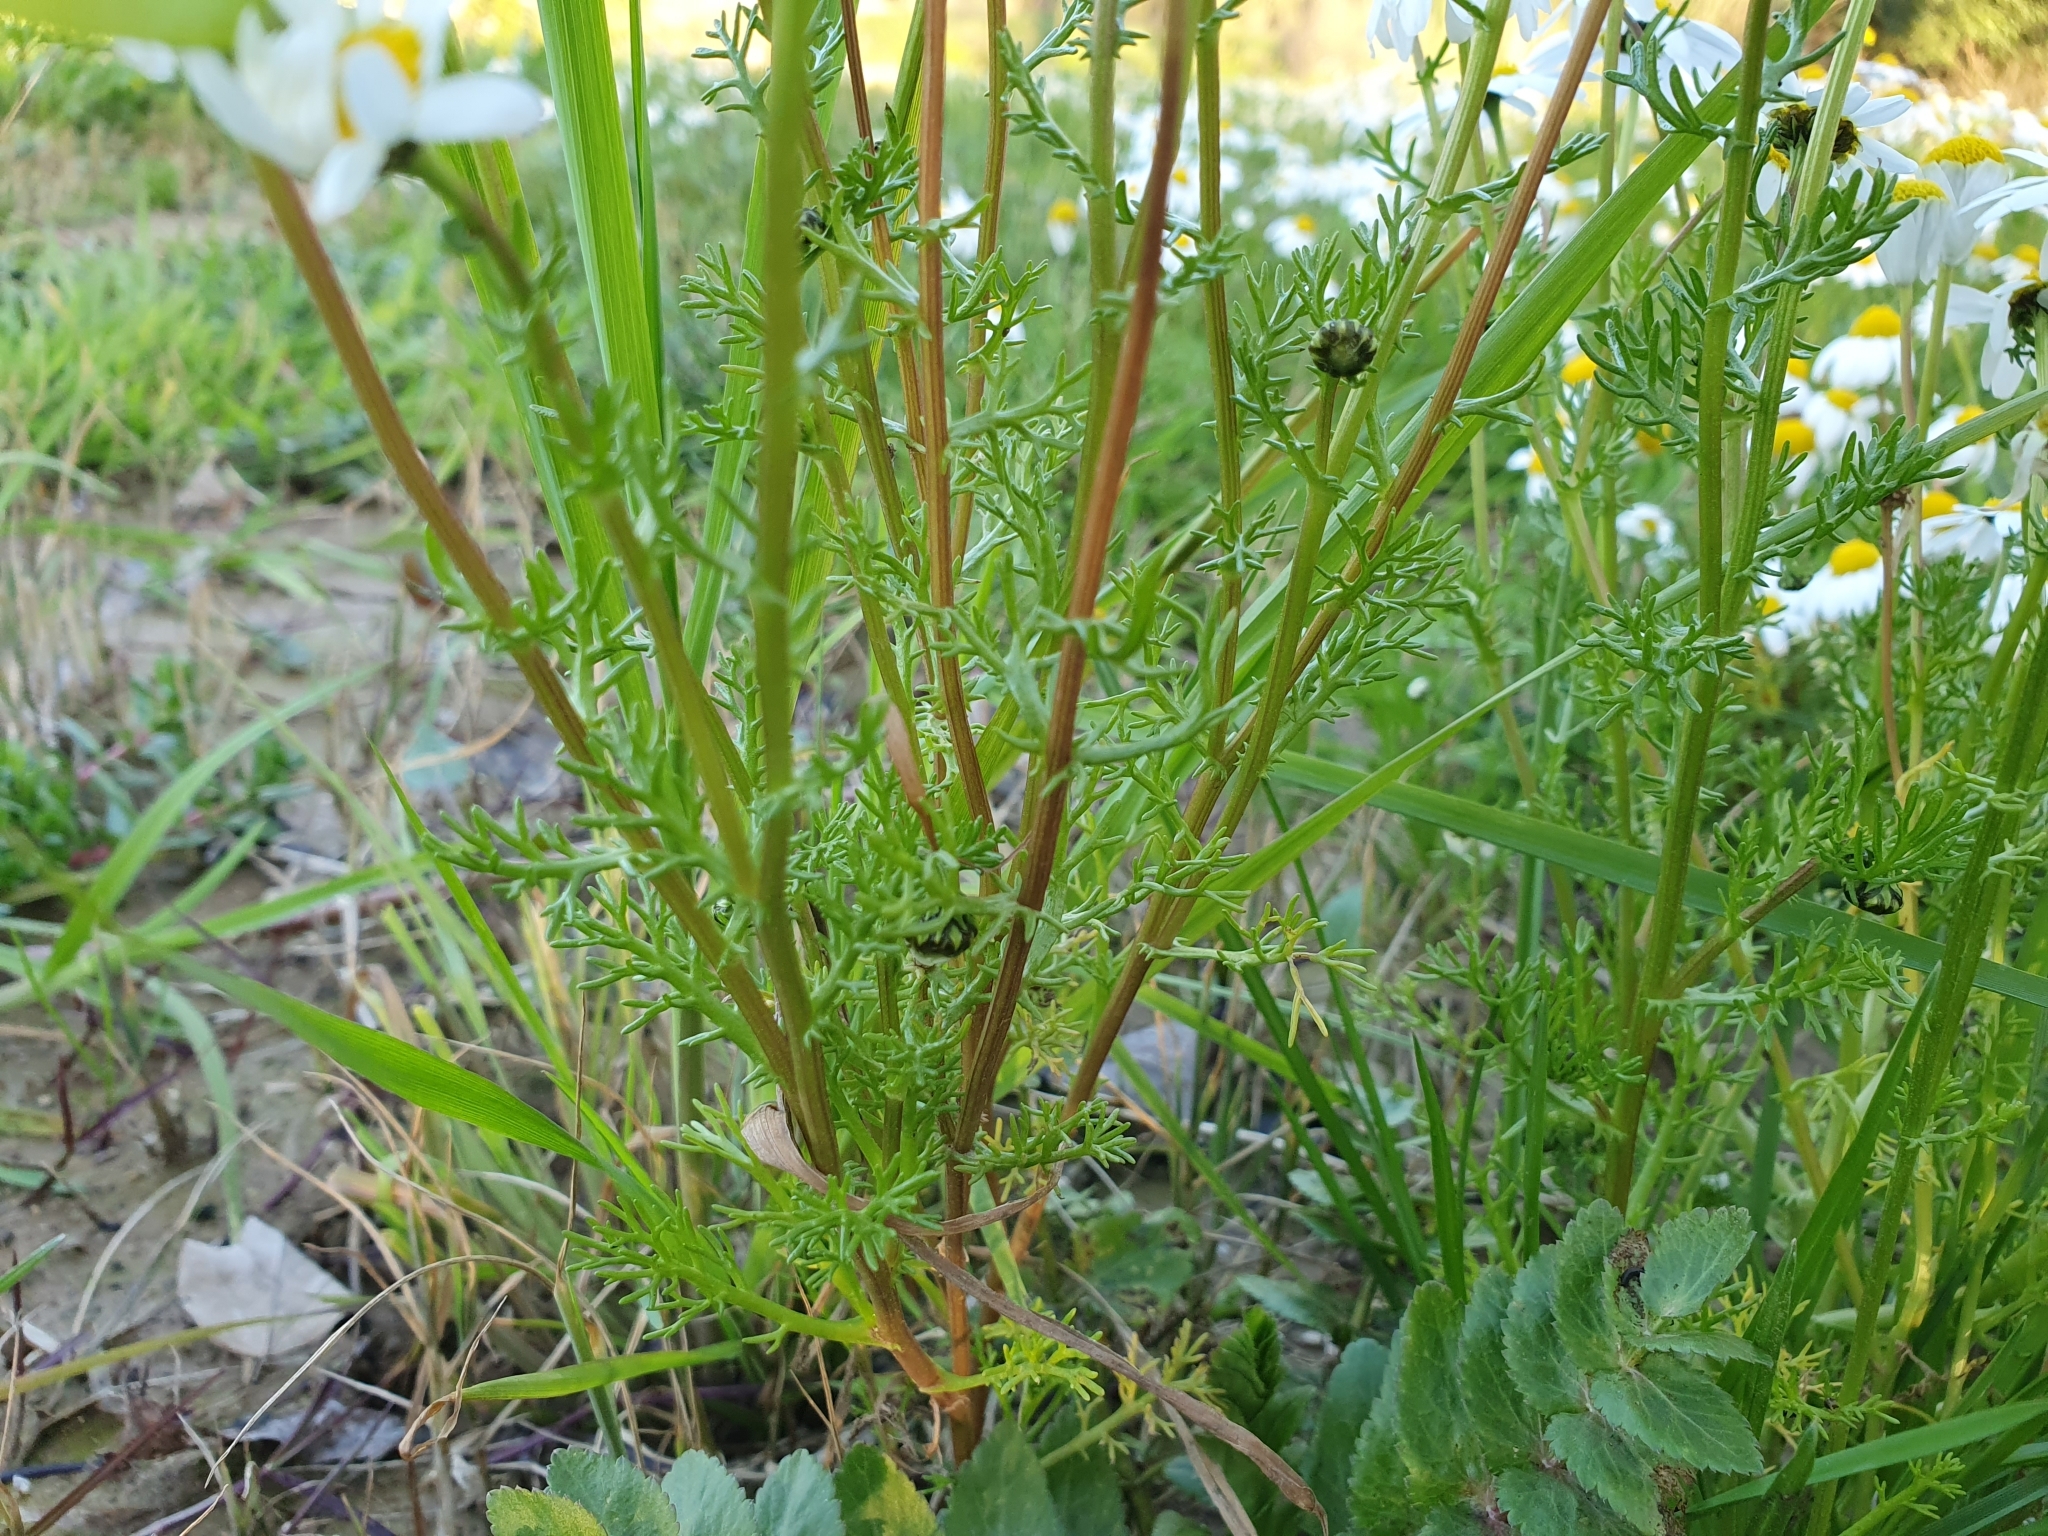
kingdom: Plantae
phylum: Tracheophyta
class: Magnoliopsida
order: Asterales
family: Asteraceae
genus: Chamaemelum
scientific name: Chamaemelum fuscatum
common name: Chamomile
